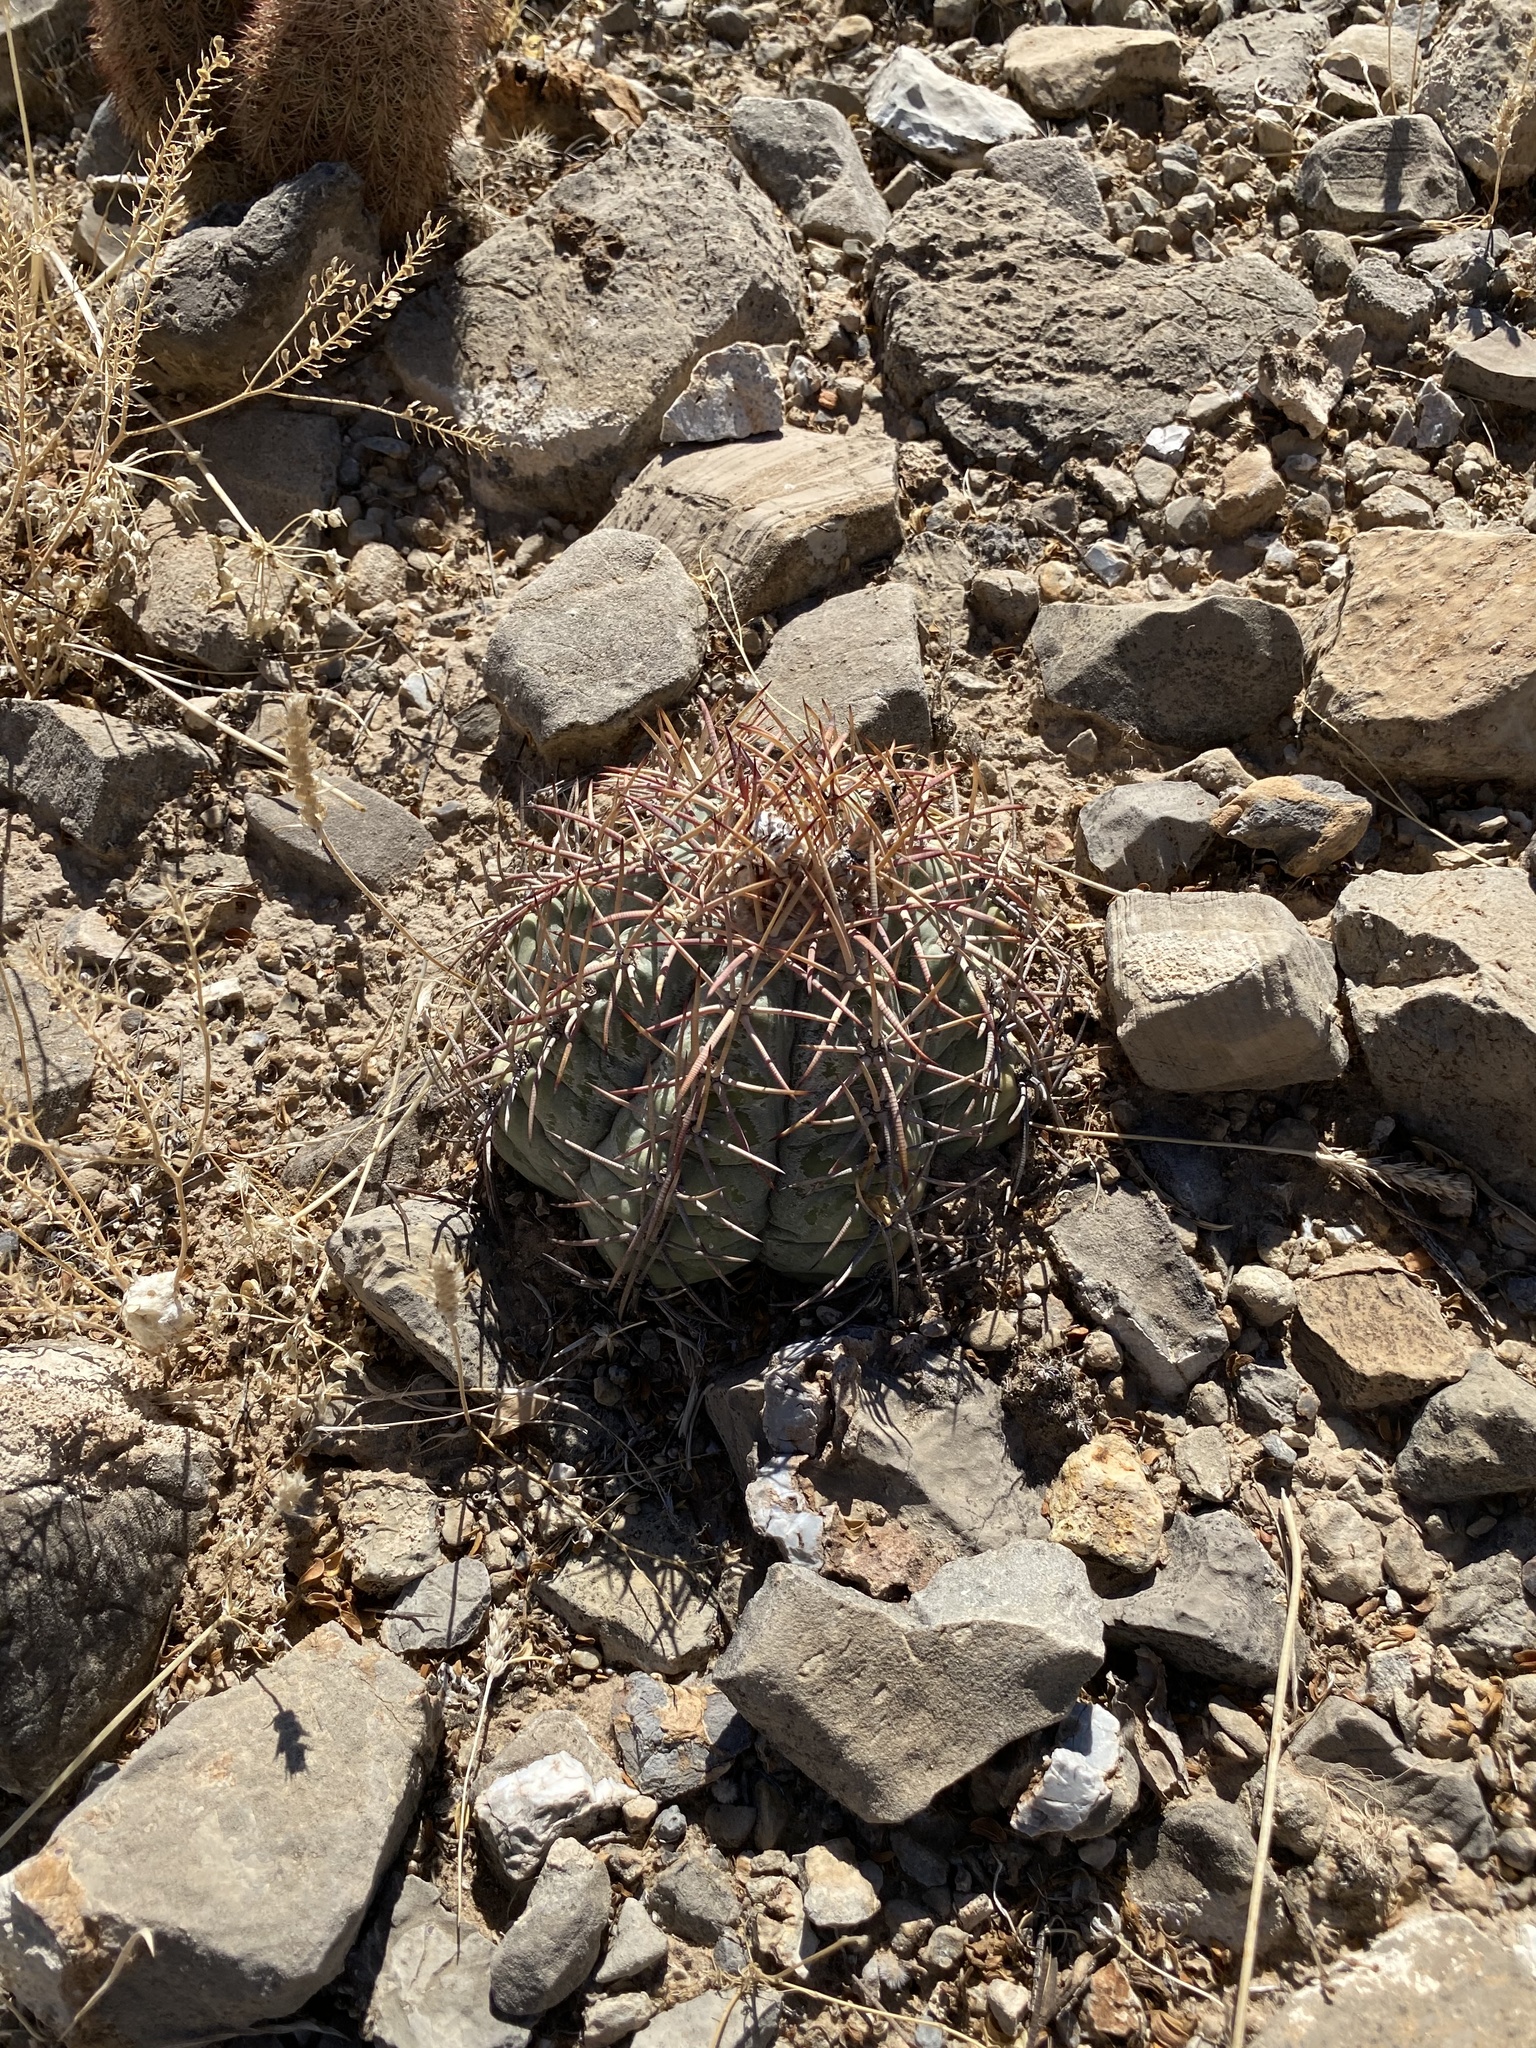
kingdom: Plantae
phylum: Tracheophyta
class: Magnoliopsida
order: Caryophyllales
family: Cactaceae
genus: Echinocactus
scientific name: Echinocactus horizonthalonius
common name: Devilshead
